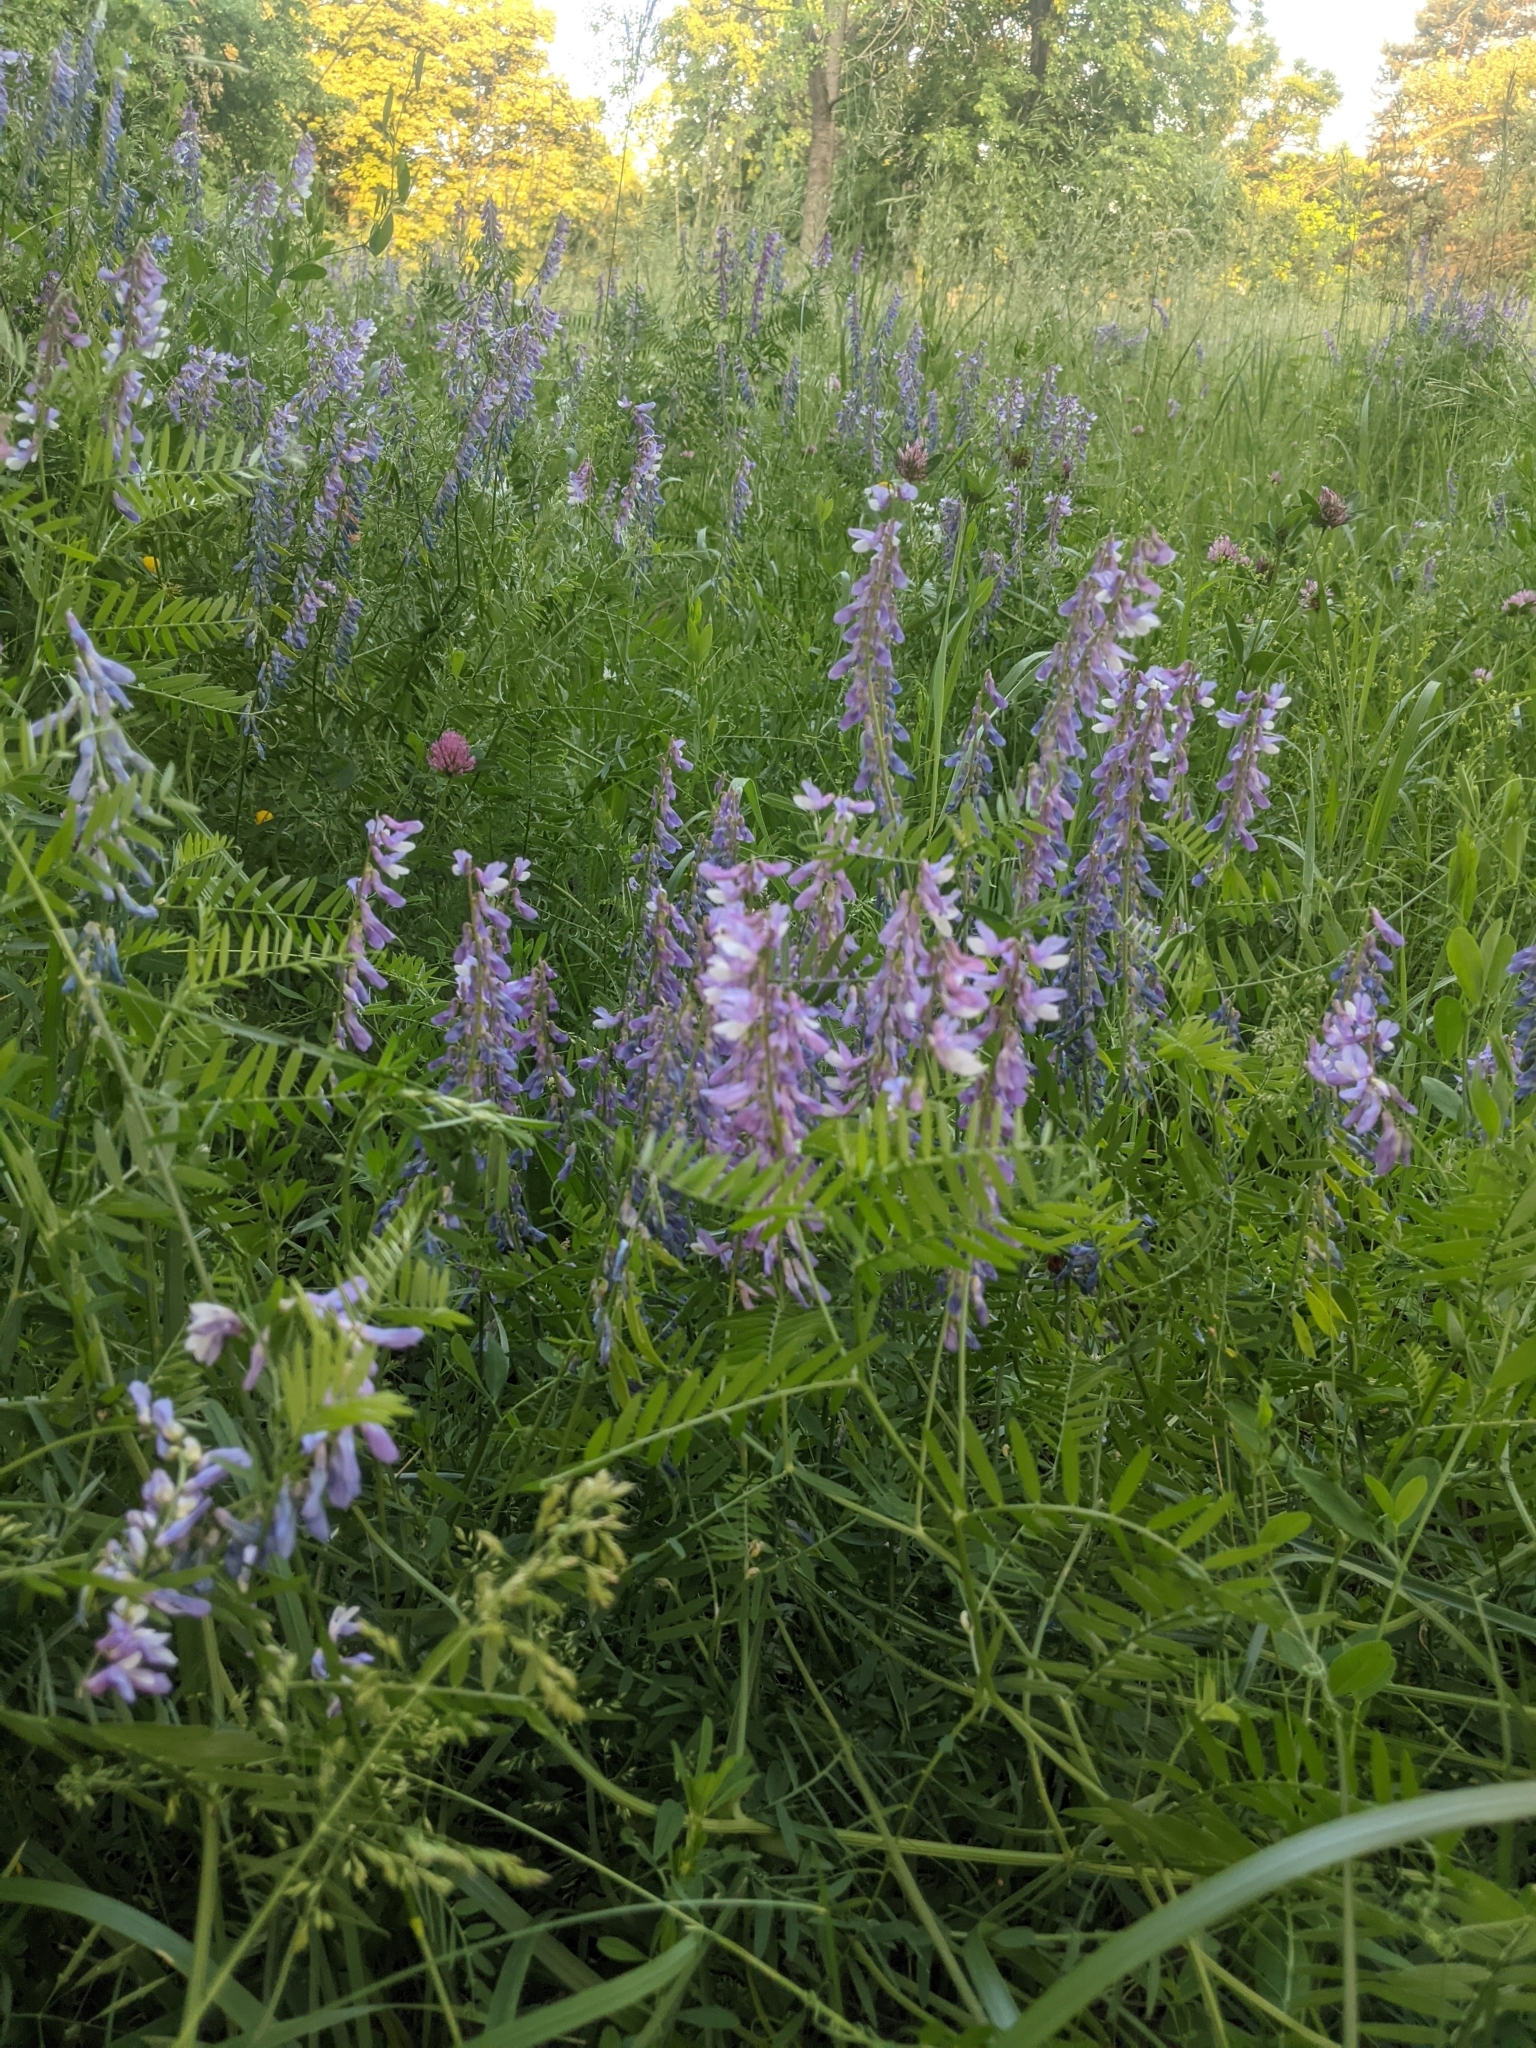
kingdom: Plantae
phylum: Tracheophyta
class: Magnoliopsida
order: Fabales
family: Fabaceae
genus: Vicia
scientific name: Vicia tenuifolia
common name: Fine-leaved vetch
